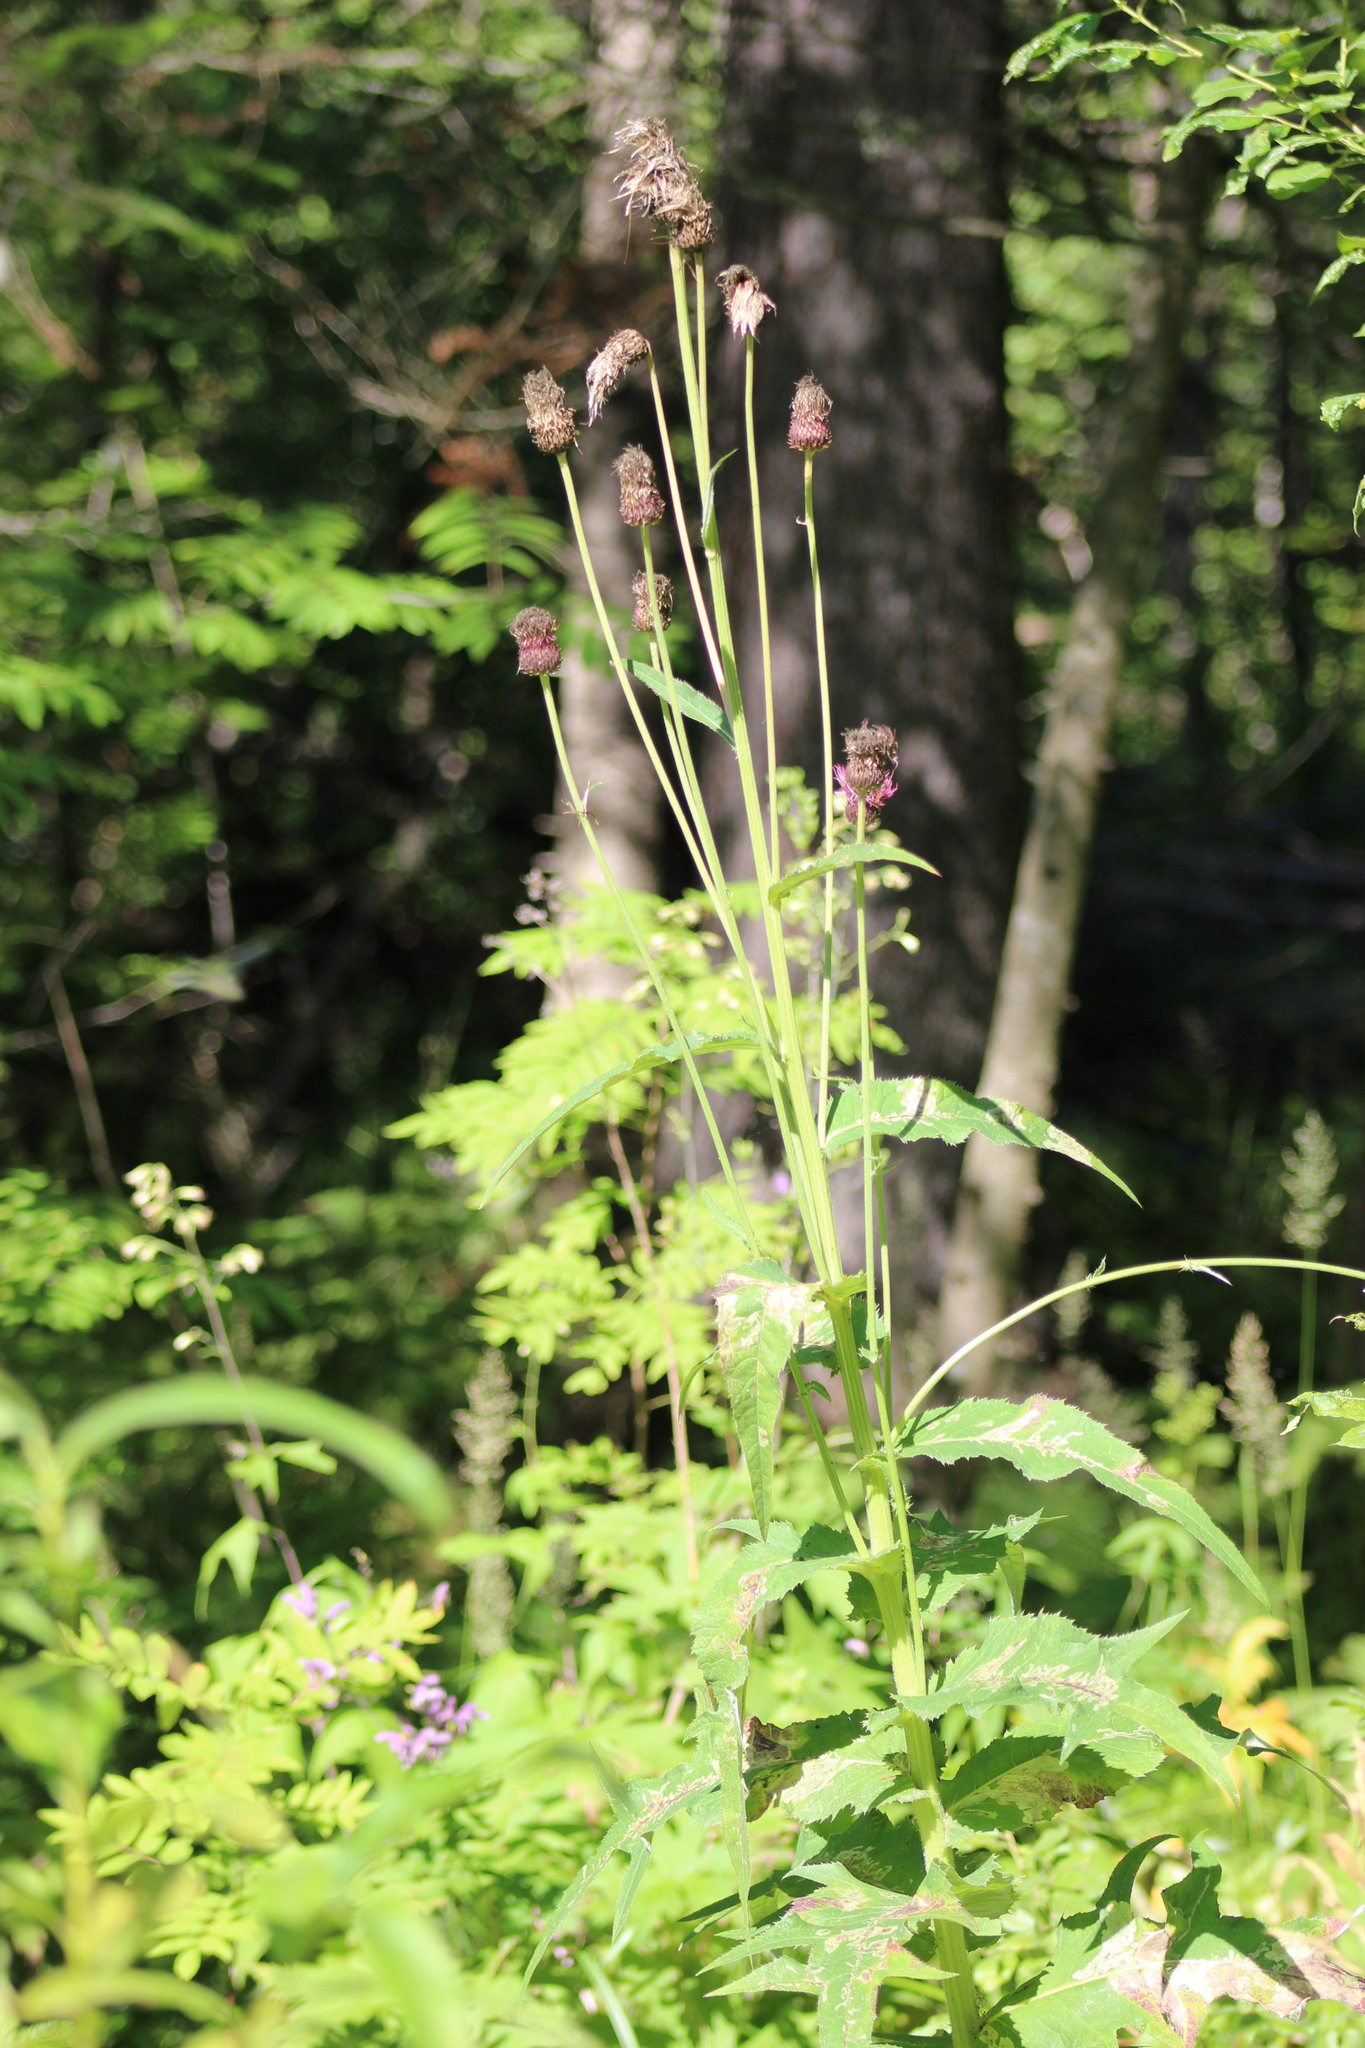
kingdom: Plantae
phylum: Tracheophyta
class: Magnoliopsida
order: Asterales
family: Asteraceae
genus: Cirsium
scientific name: Cirsium helenioides
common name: Melancholy thistle
